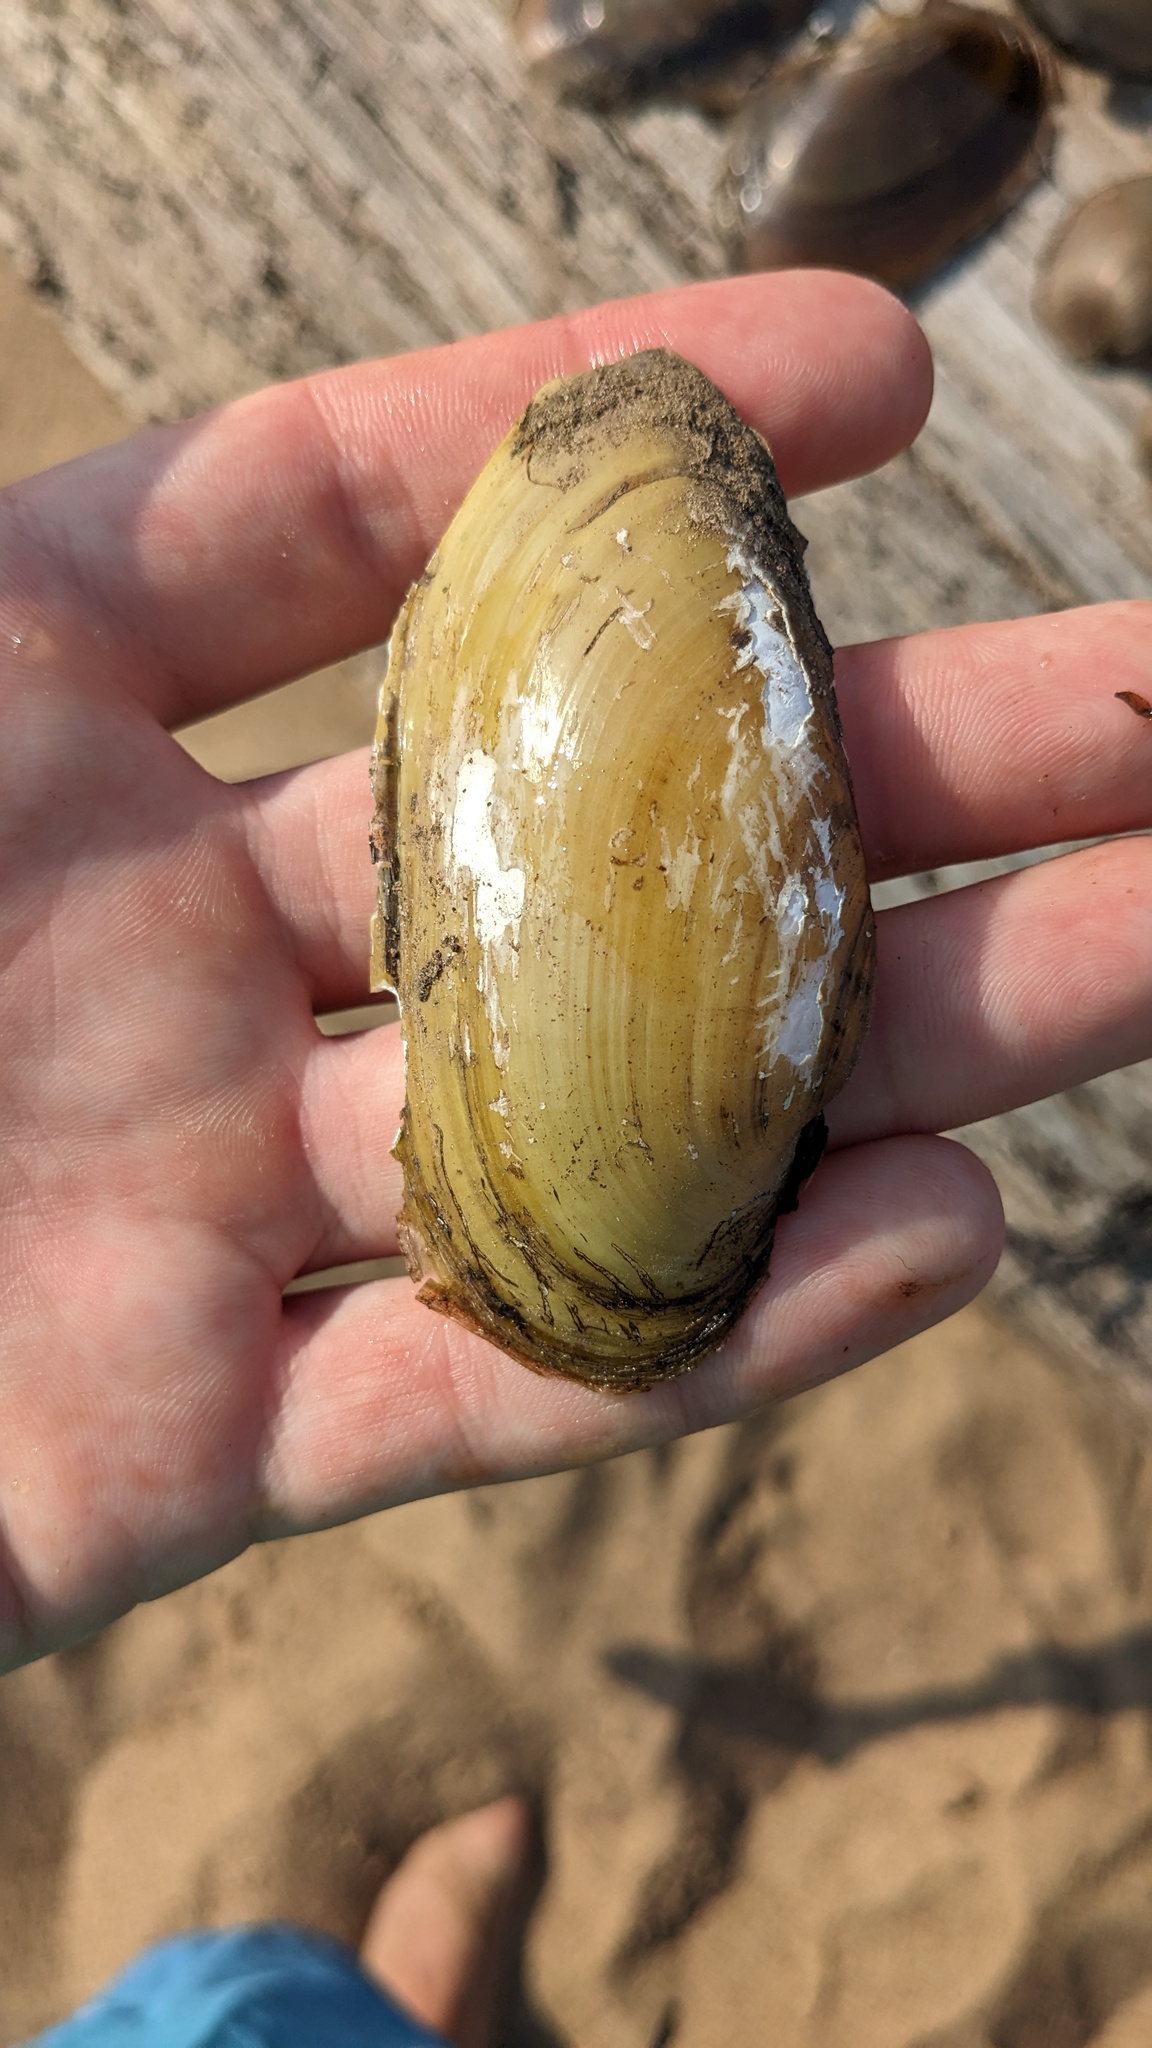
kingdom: Animalia
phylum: Mollusca
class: Bivalvia
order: Unionida
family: Unionidae
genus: Lampsilis
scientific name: Lampsilis sietmani
